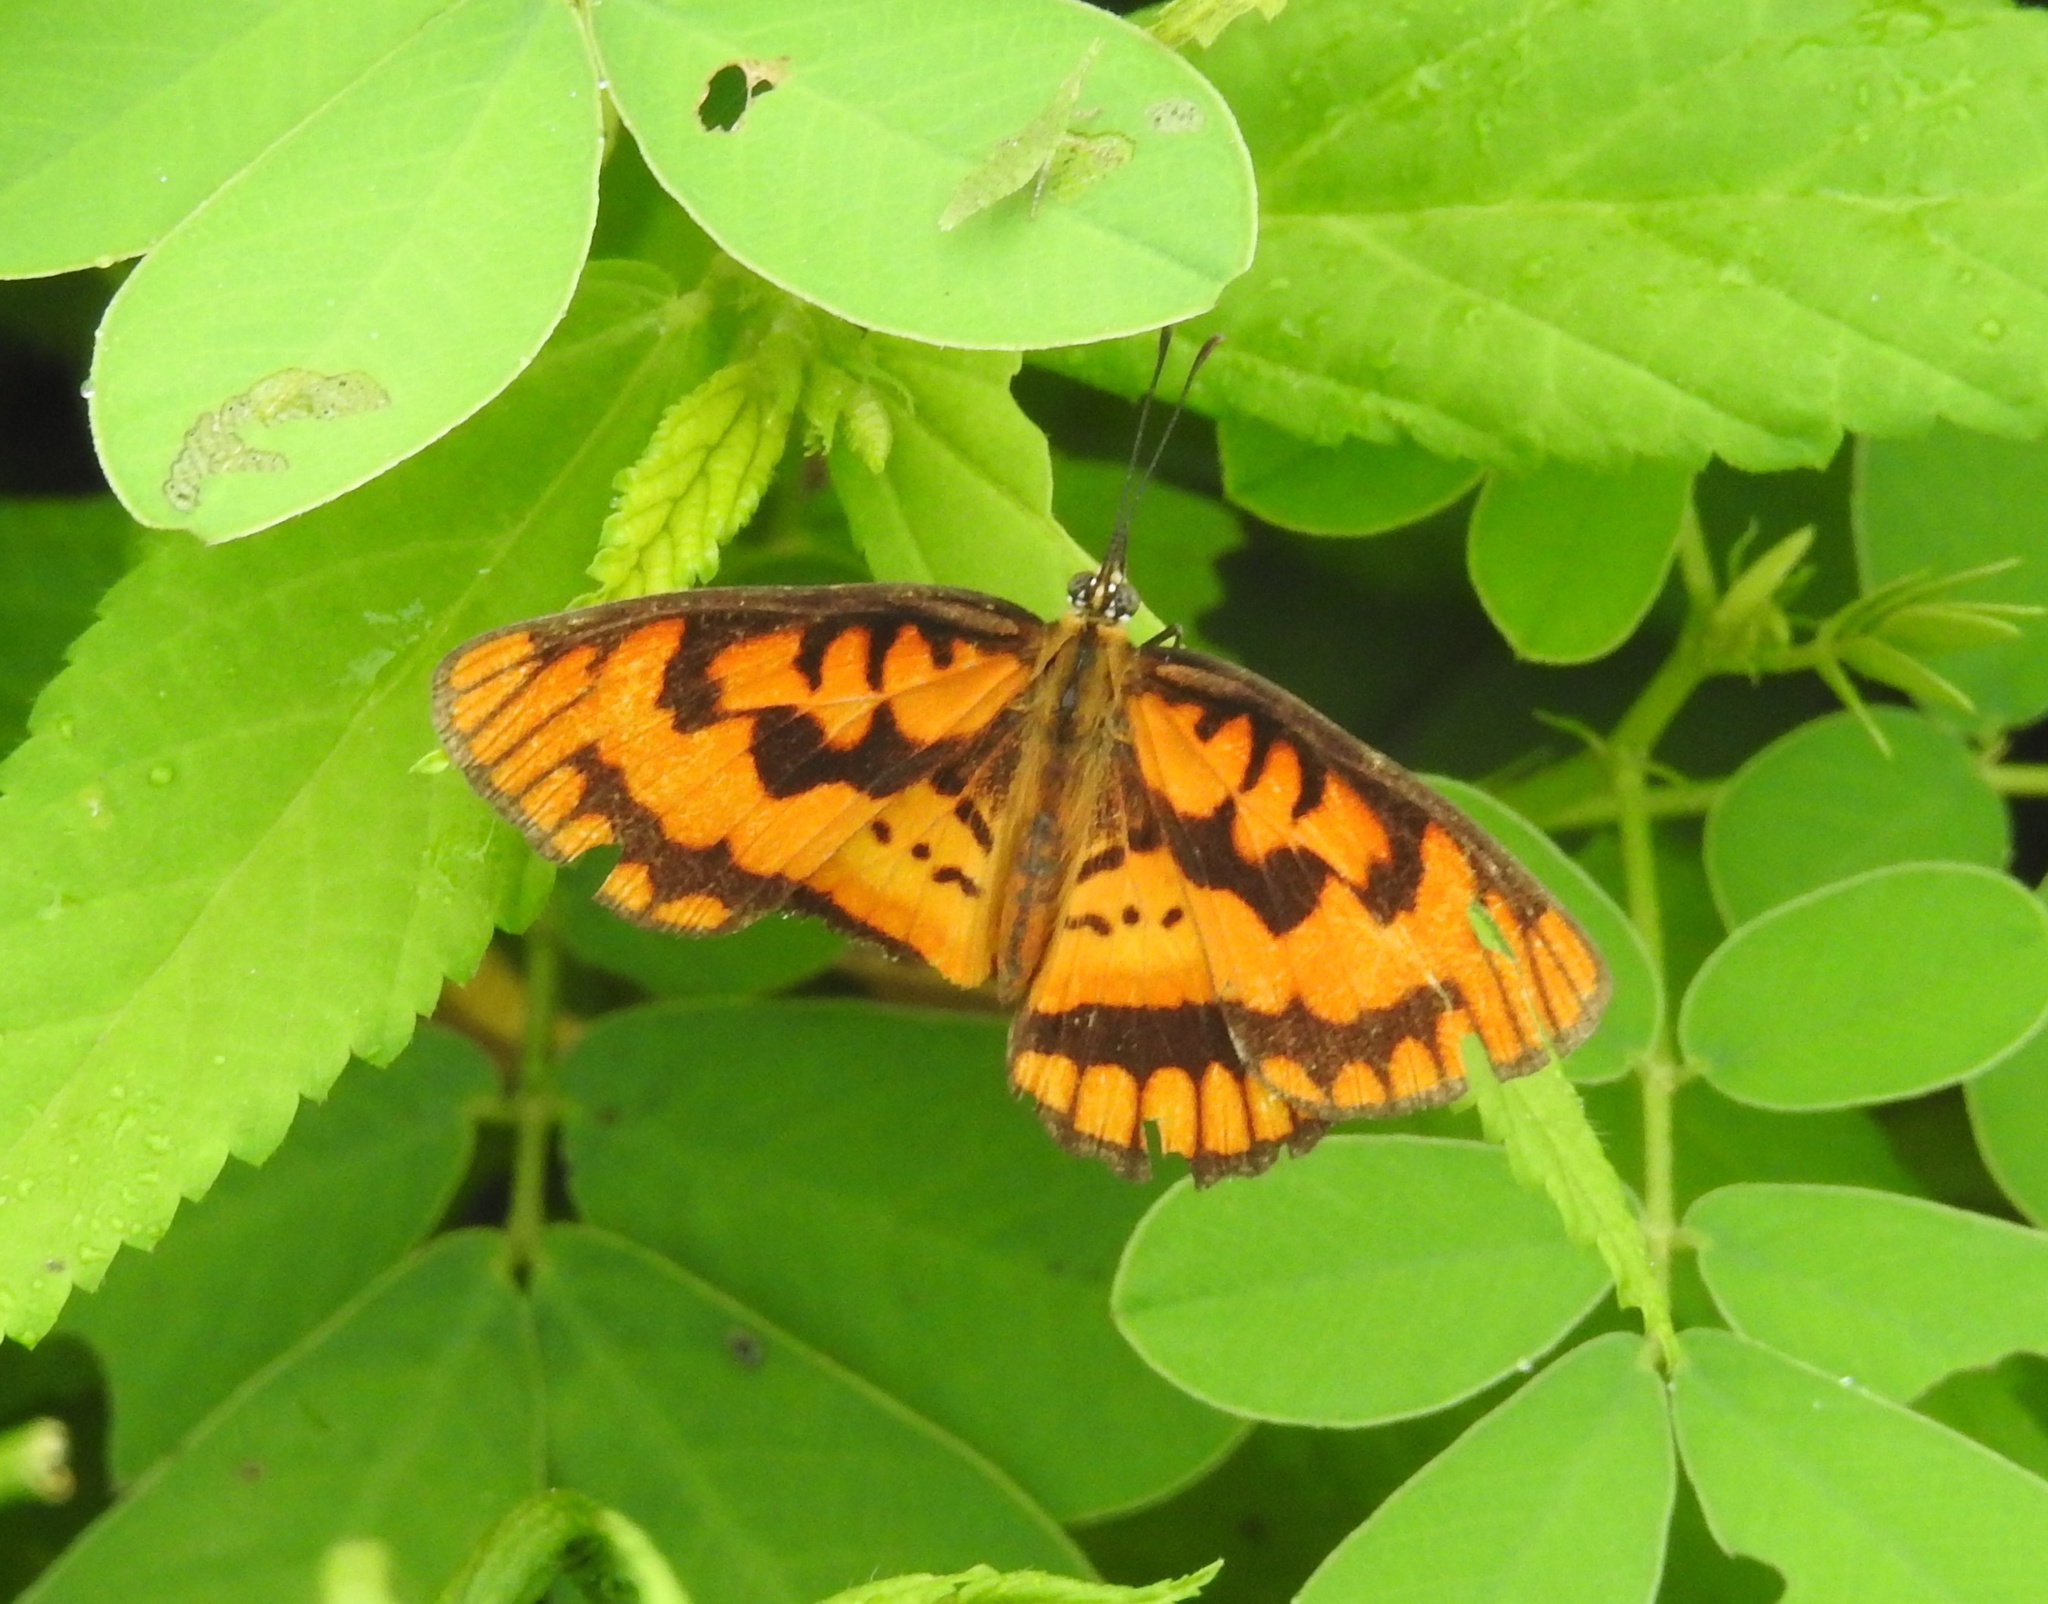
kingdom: Animalia
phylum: Arthropoda
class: Insecta
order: Lepidoptera
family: Nymphalidae
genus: Byblia
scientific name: Byblia ilithyia
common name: Spotted joker
